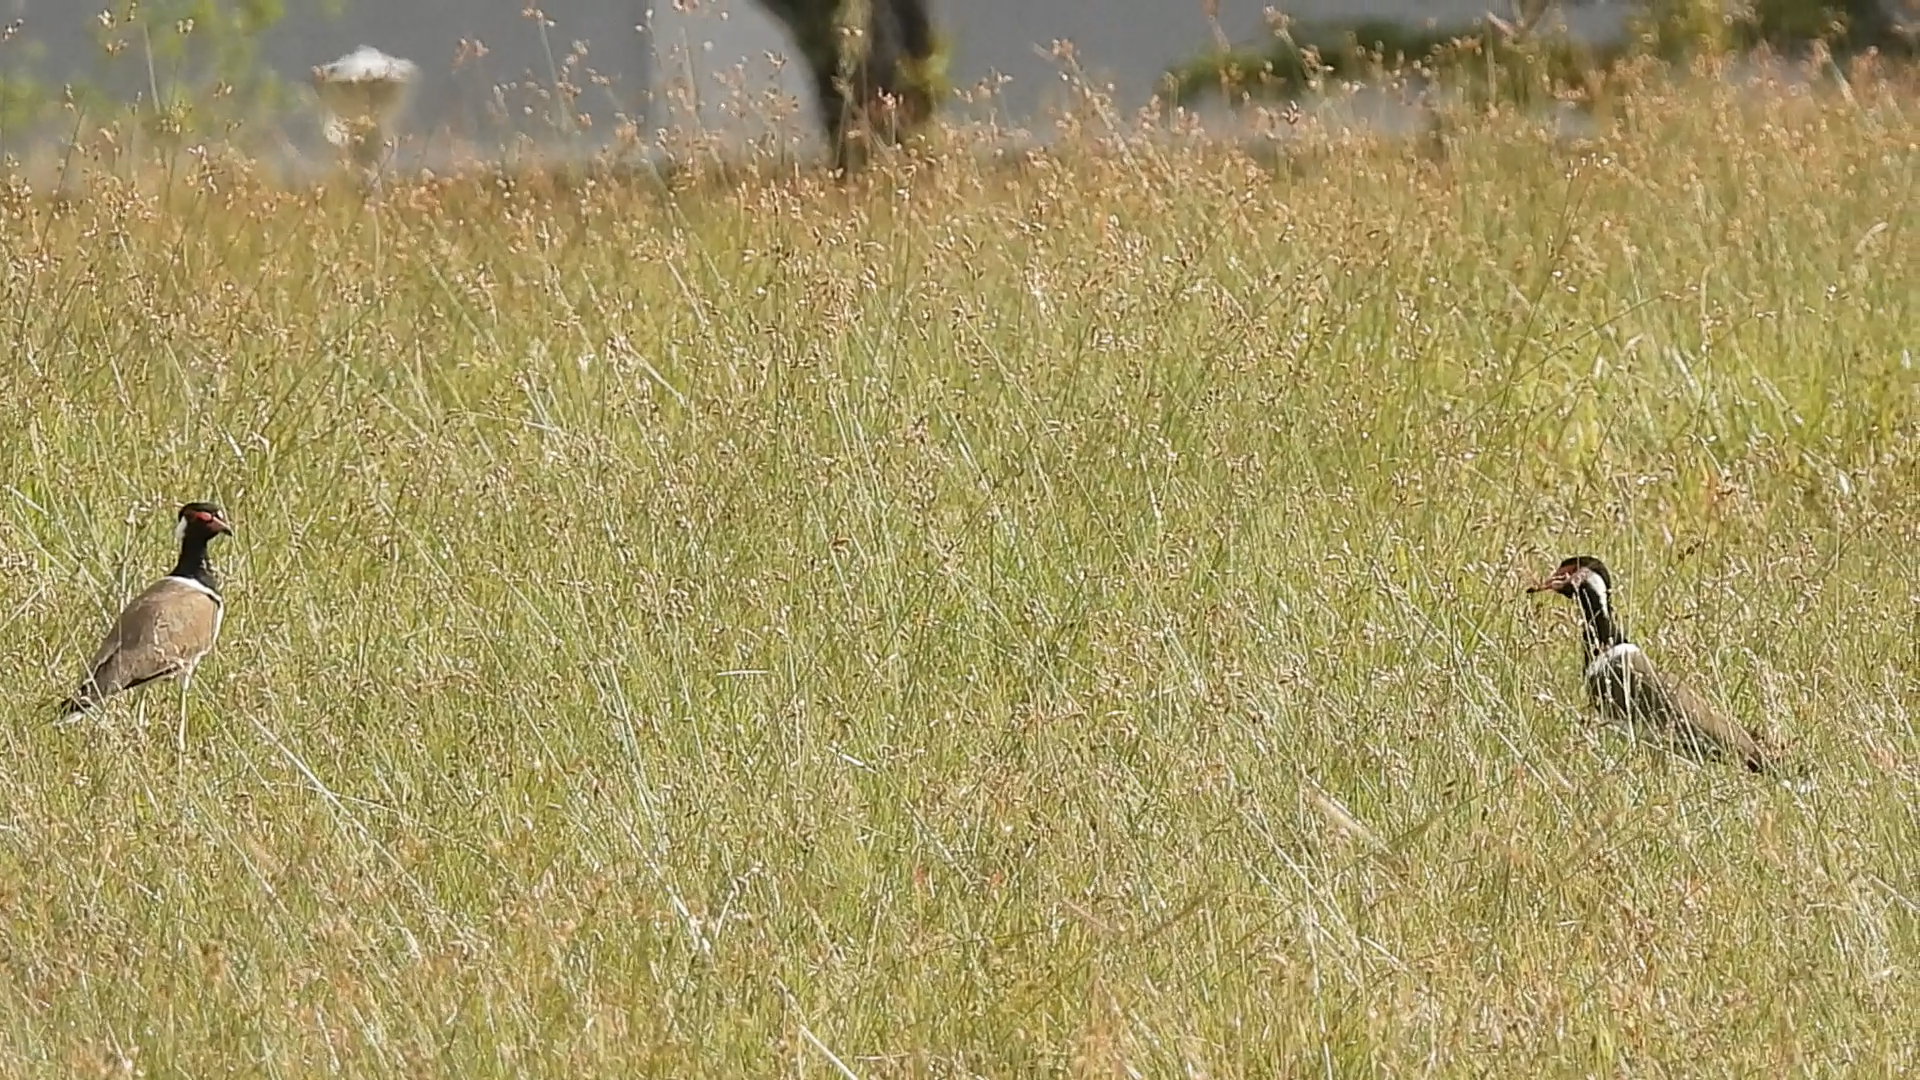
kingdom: Animalia
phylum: Chordata
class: Aves
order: Charadriiformes
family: Charadriidae
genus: Vanellus
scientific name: Vanellus indicus
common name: Red-wattled lapwing
